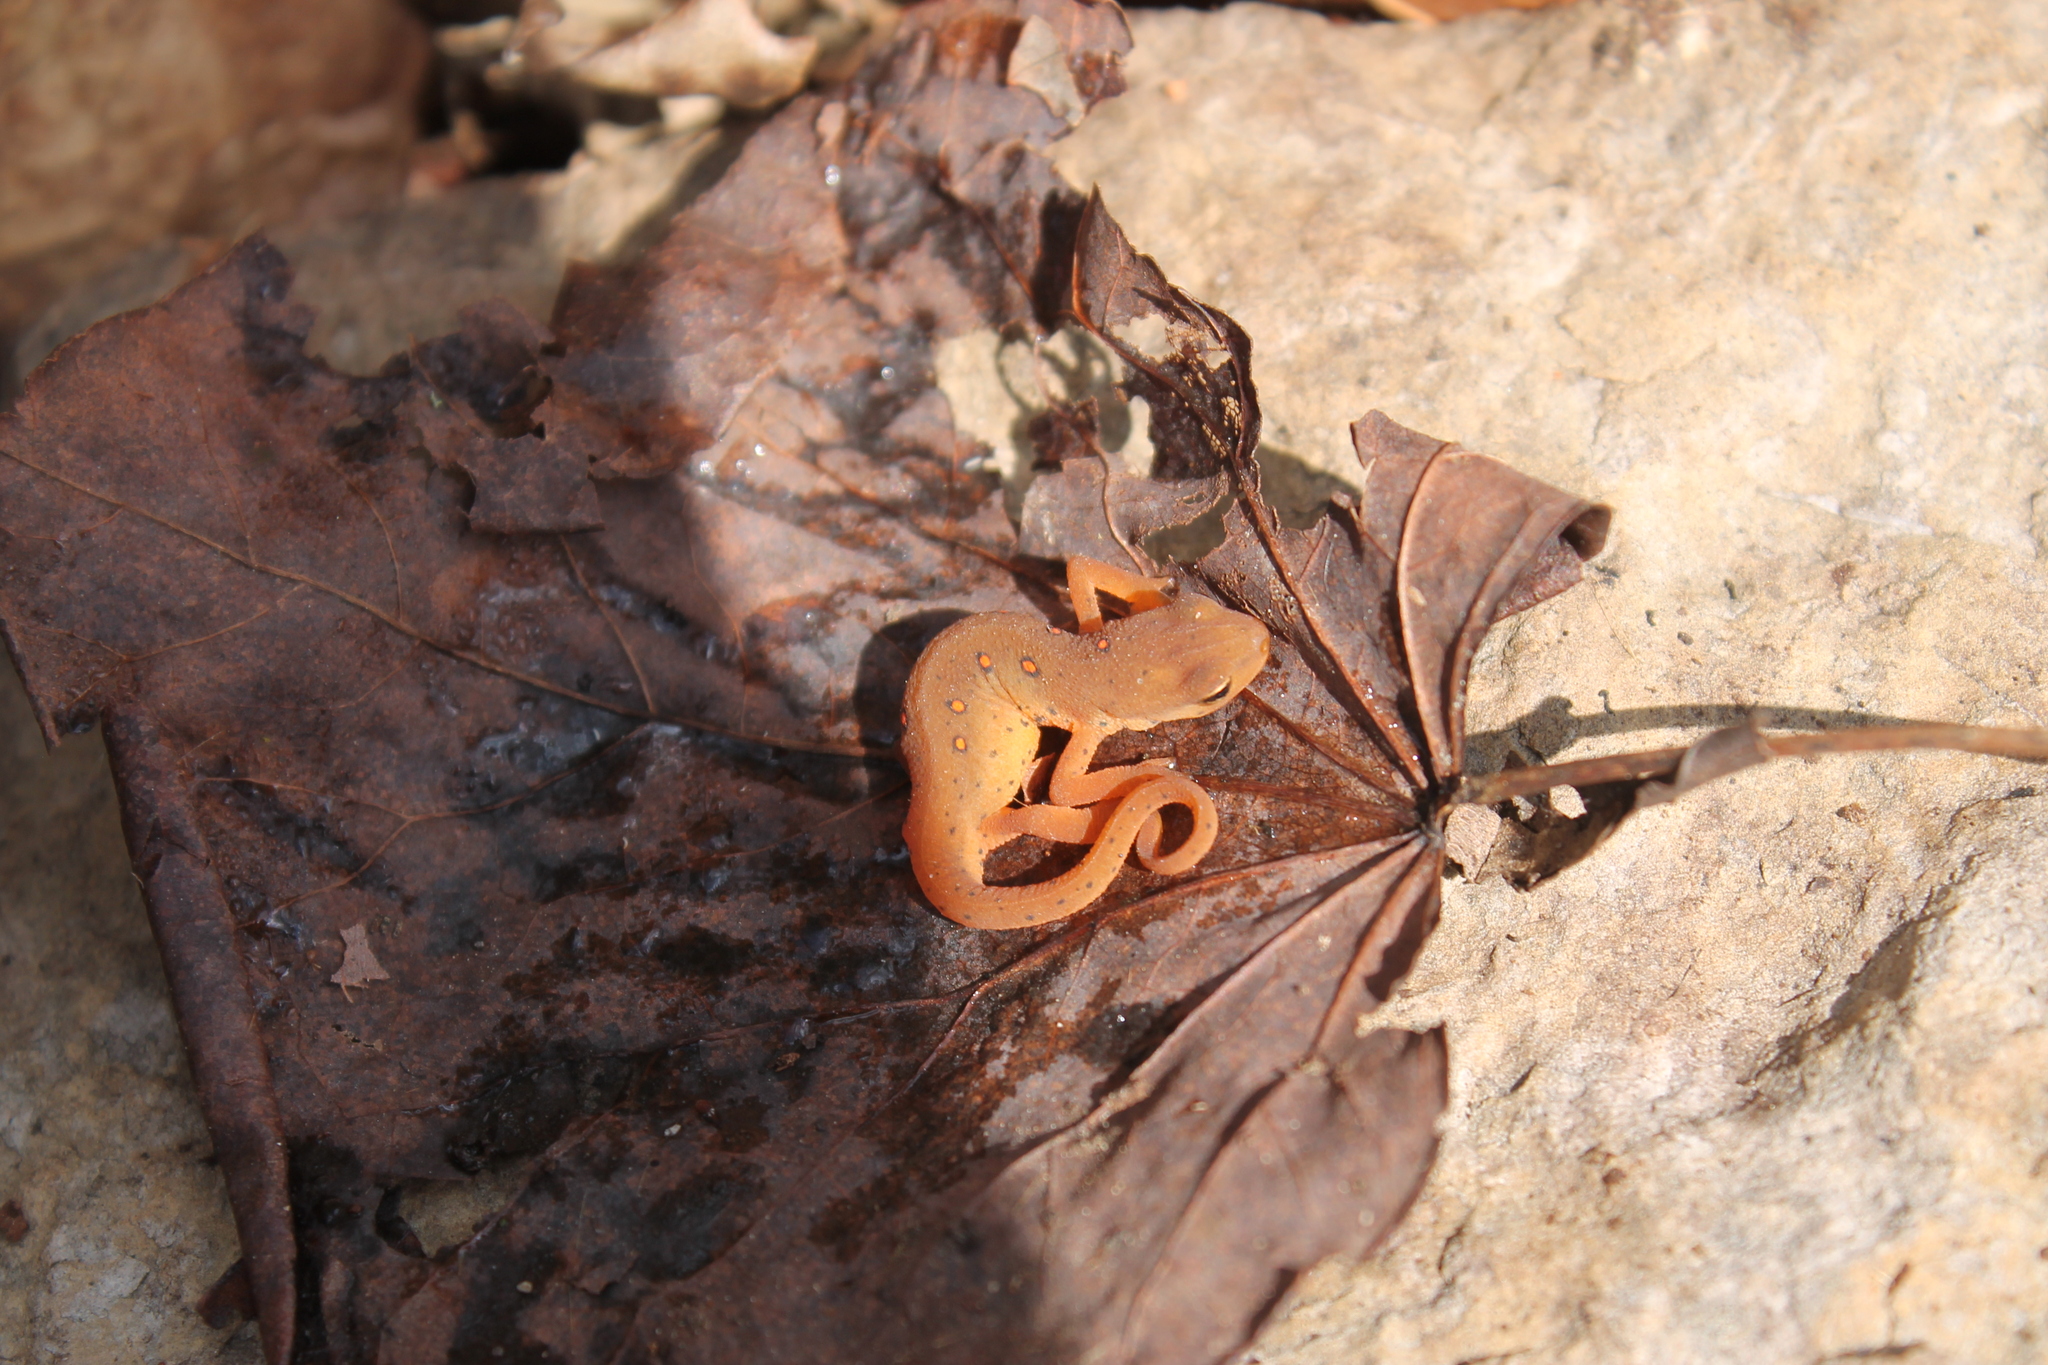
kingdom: Animalia
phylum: Chordata
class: Amphibia
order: Caudata
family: Salamandridae
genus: Notophthalmus
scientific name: Notophthalmus viridescens
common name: Eastern newt
